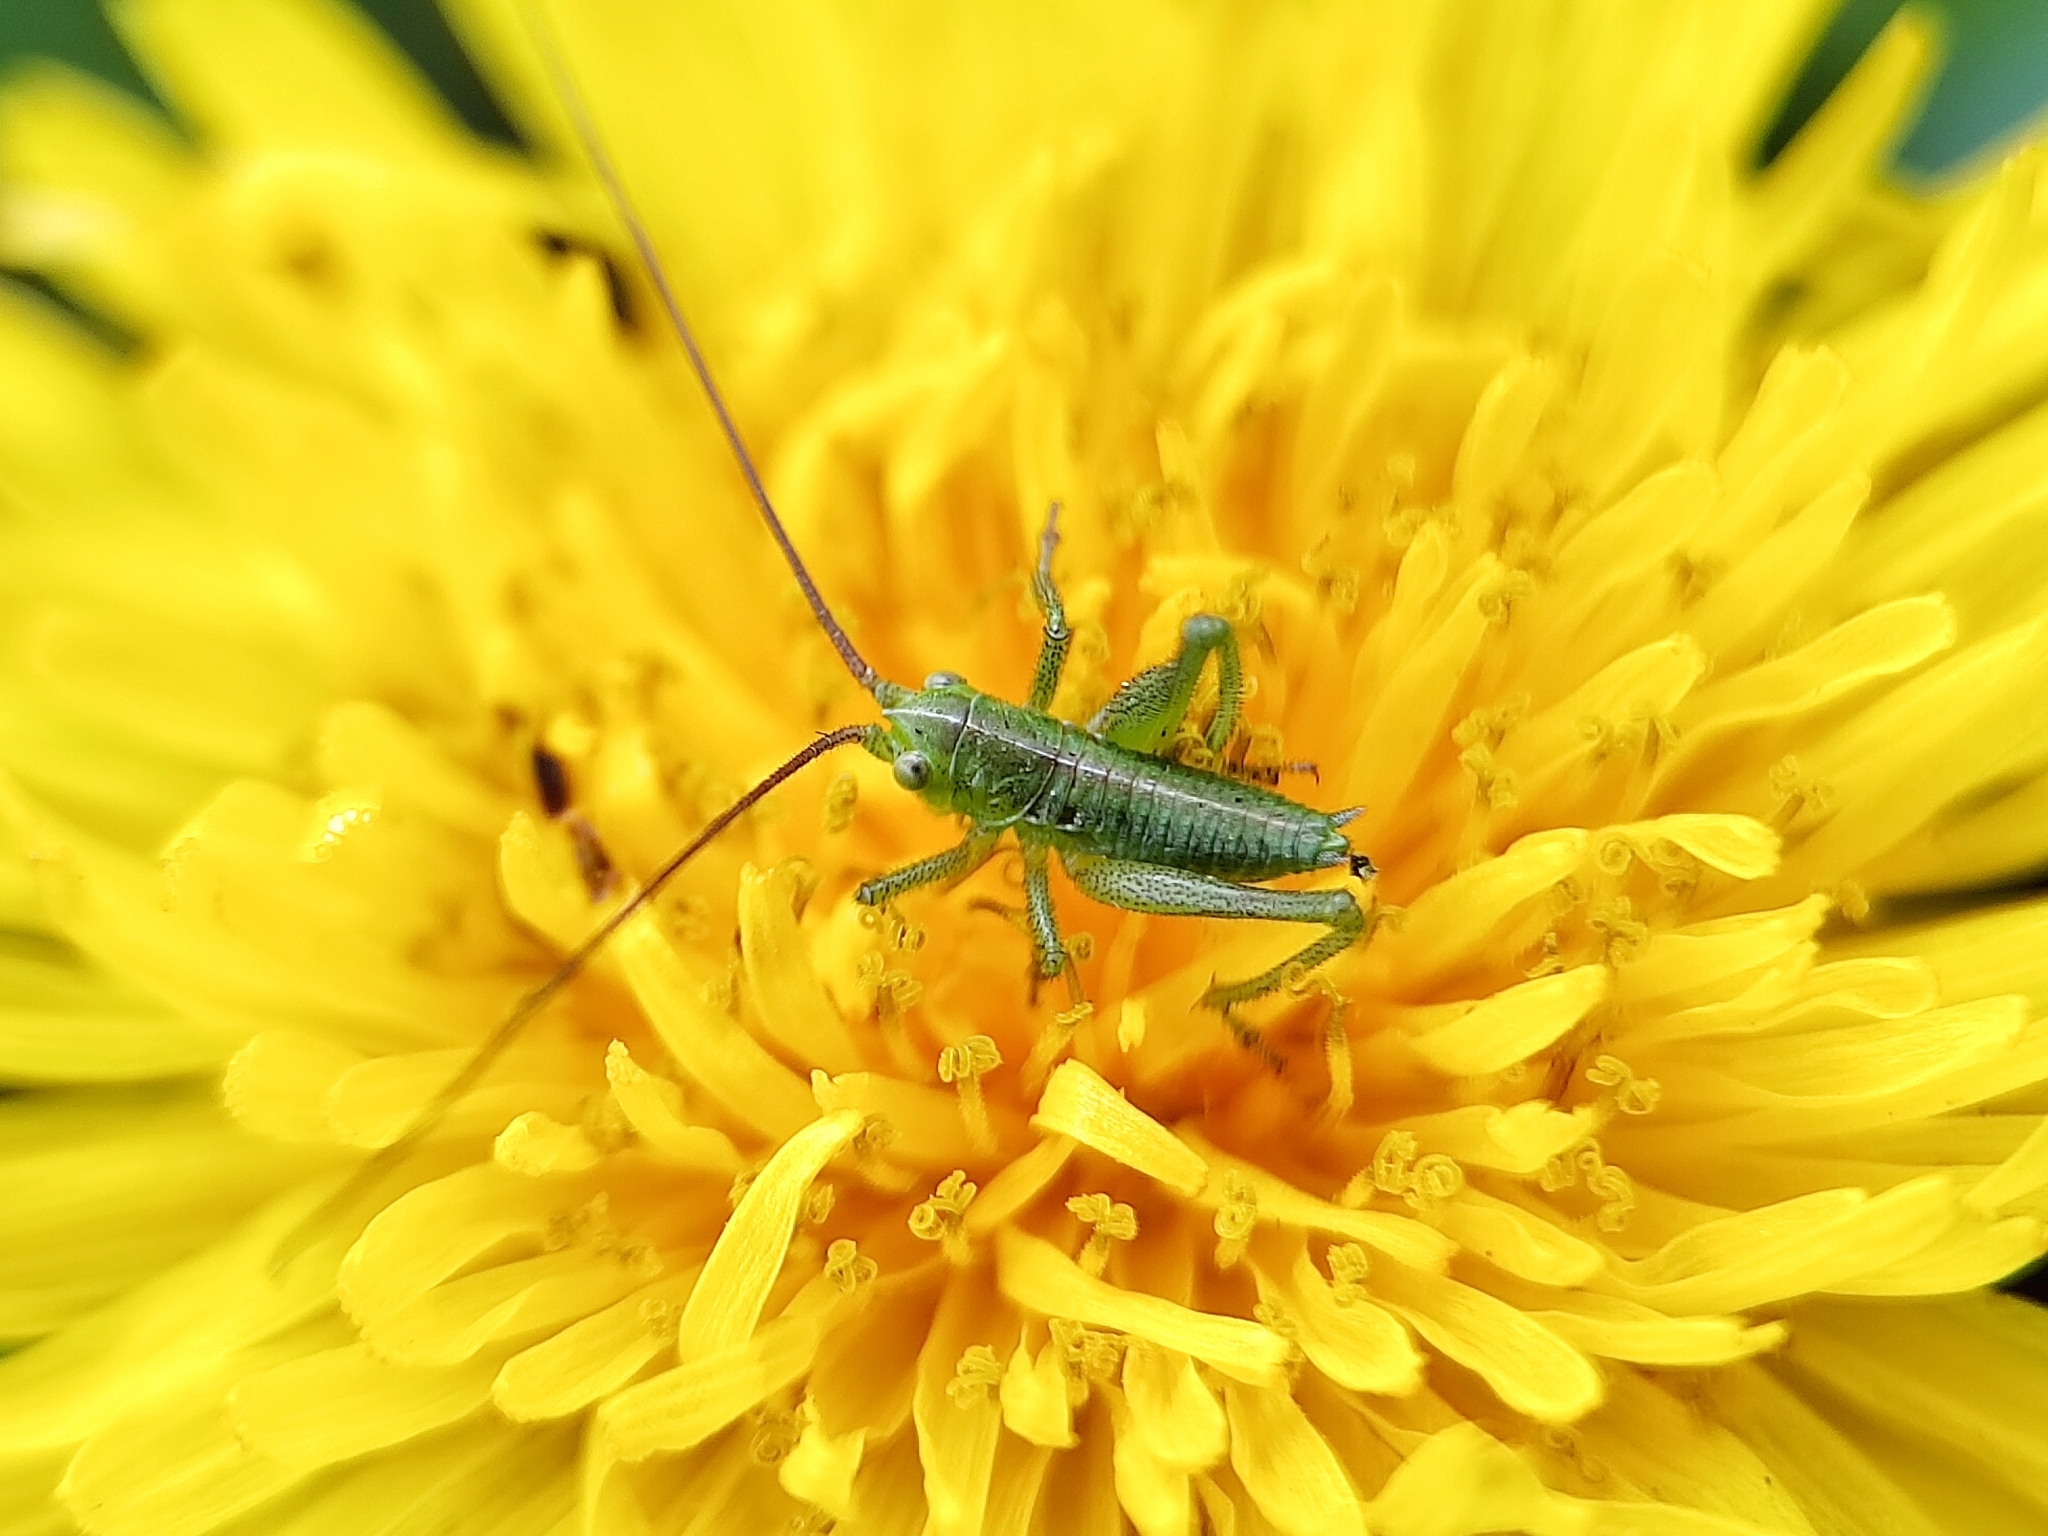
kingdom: Animalia
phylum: Arthropoda
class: Insecta
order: Orthoptera
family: Tettigoniidae
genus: Tettigonia
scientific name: Tettigonia viridissima
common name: Great green bush-cricket
